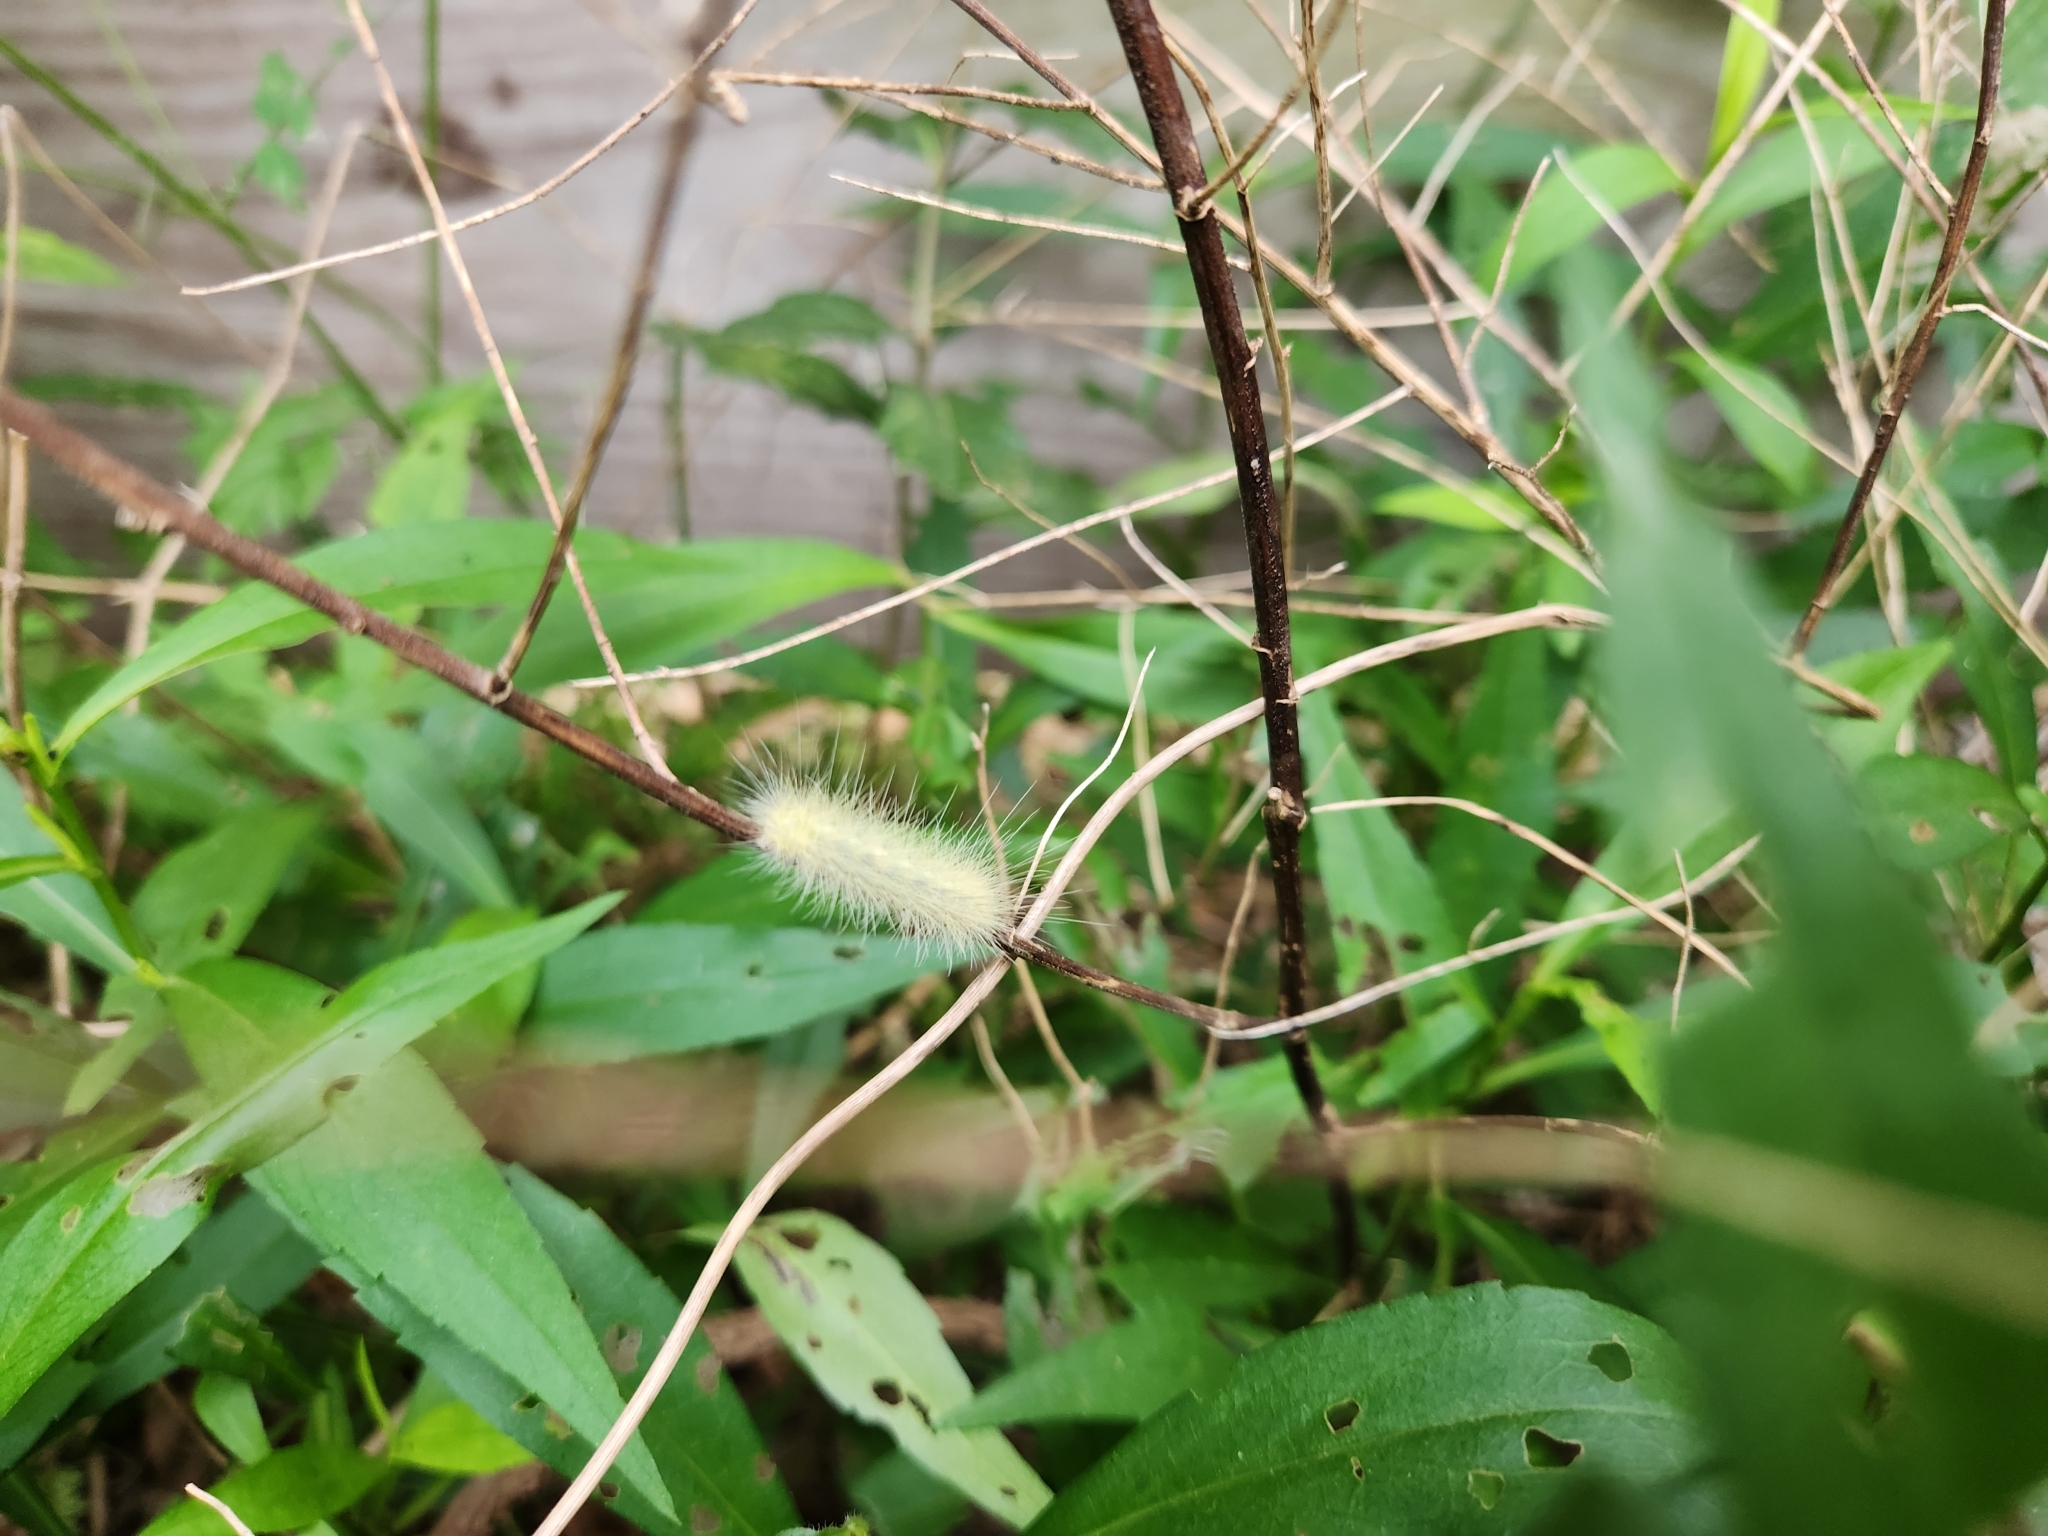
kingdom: Animalia
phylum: Arthropoda
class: Insecta
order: Lepidoptera
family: Erebidae
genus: Spilosoma
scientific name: Spilosoma virginica
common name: Virginia tiger moth
